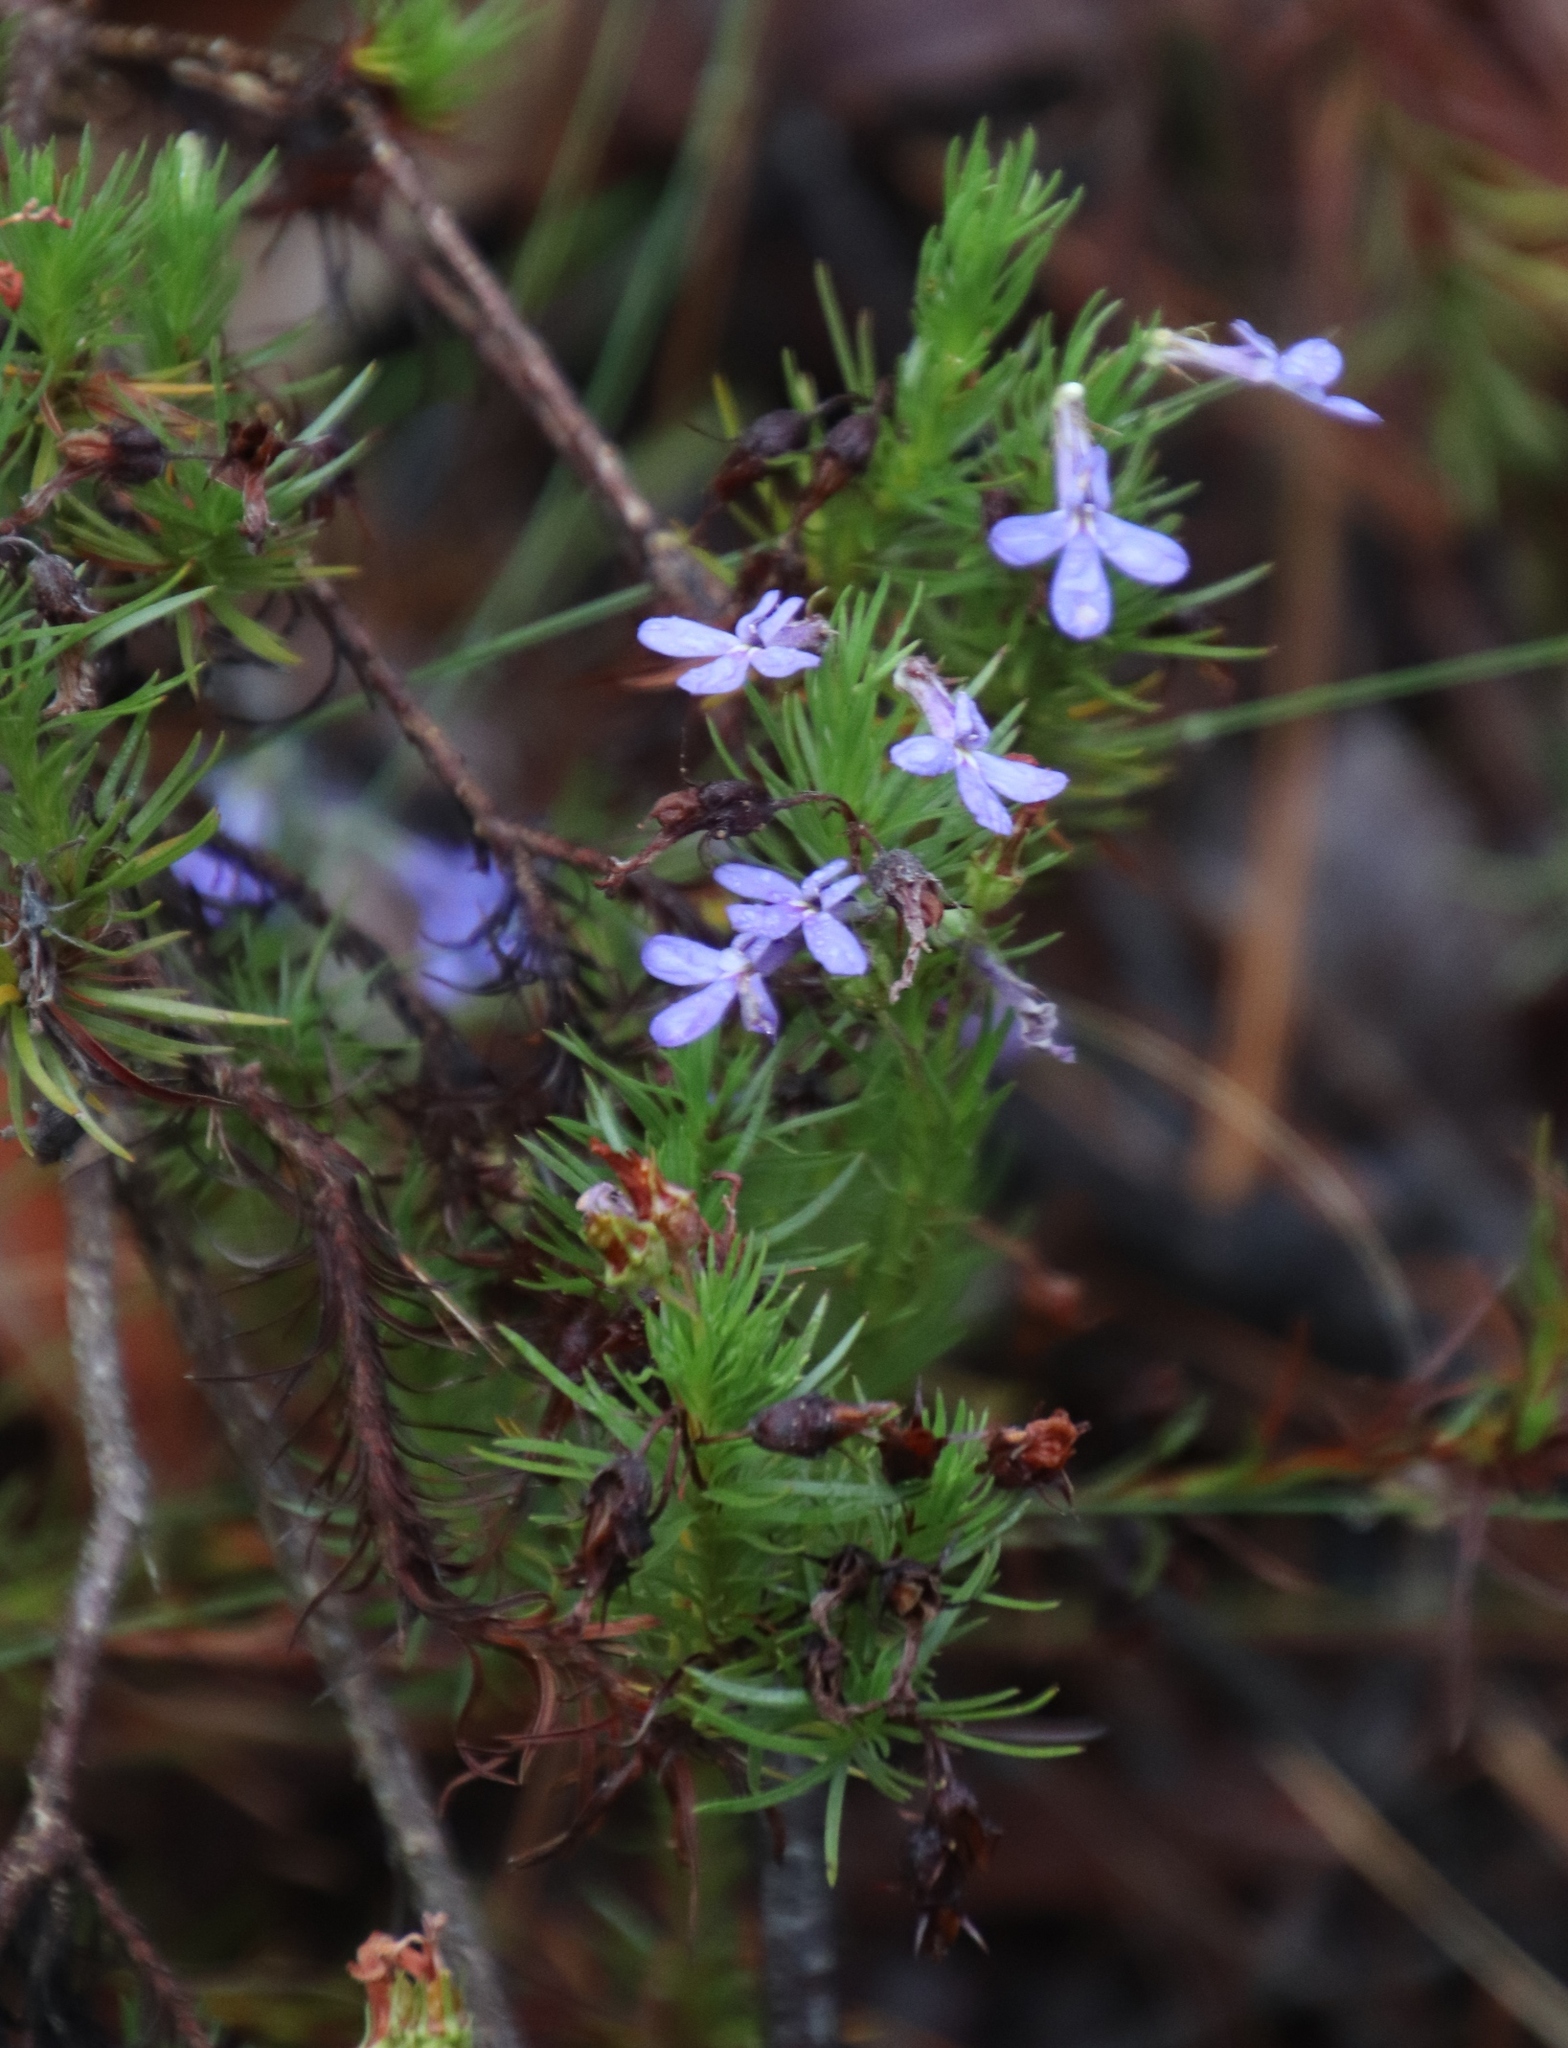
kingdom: Plantae
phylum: Tracheophyta
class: Magnoliopsida
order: Asterales
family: Campanulaceae
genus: Lobelia
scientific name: Lobelia pinifolia
